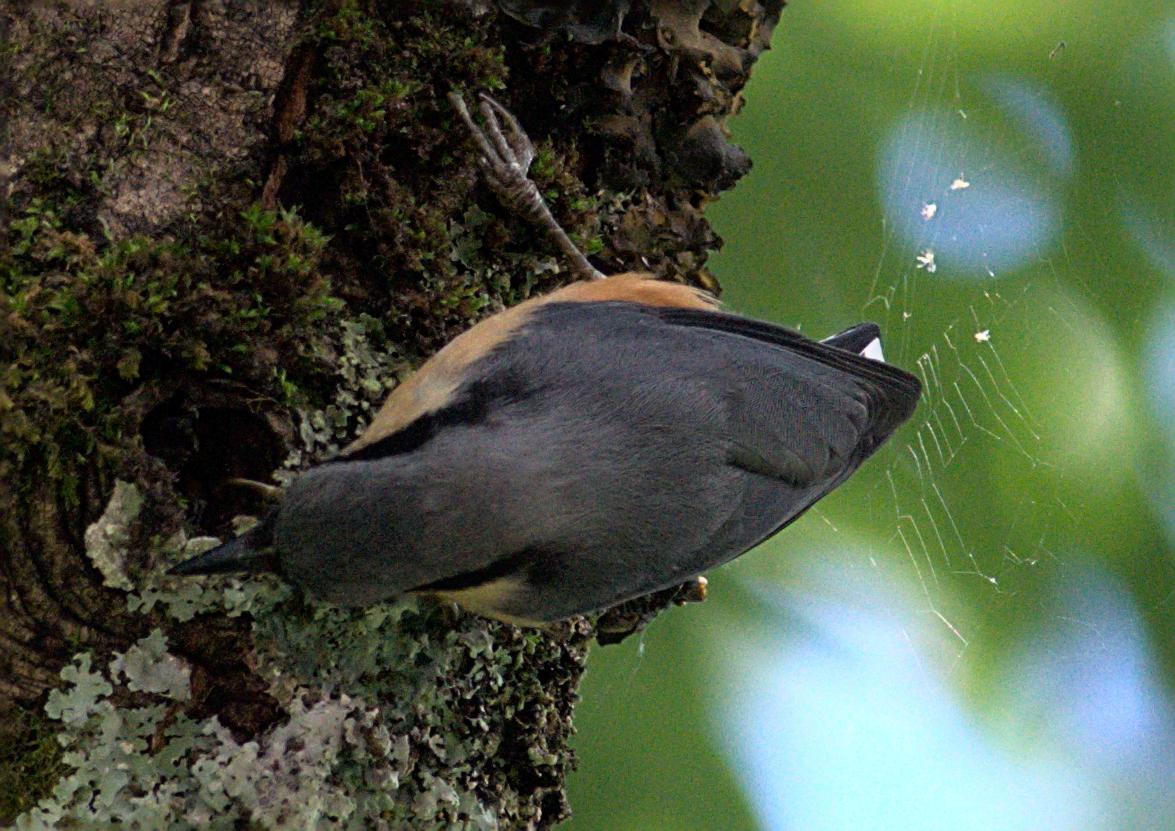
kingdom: Animalia
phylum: Chordata
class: Aves
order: Passeriformes
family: Sittidae
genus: Sitta
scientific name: Sitta himalayensis
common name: White-tailed nuthatch
